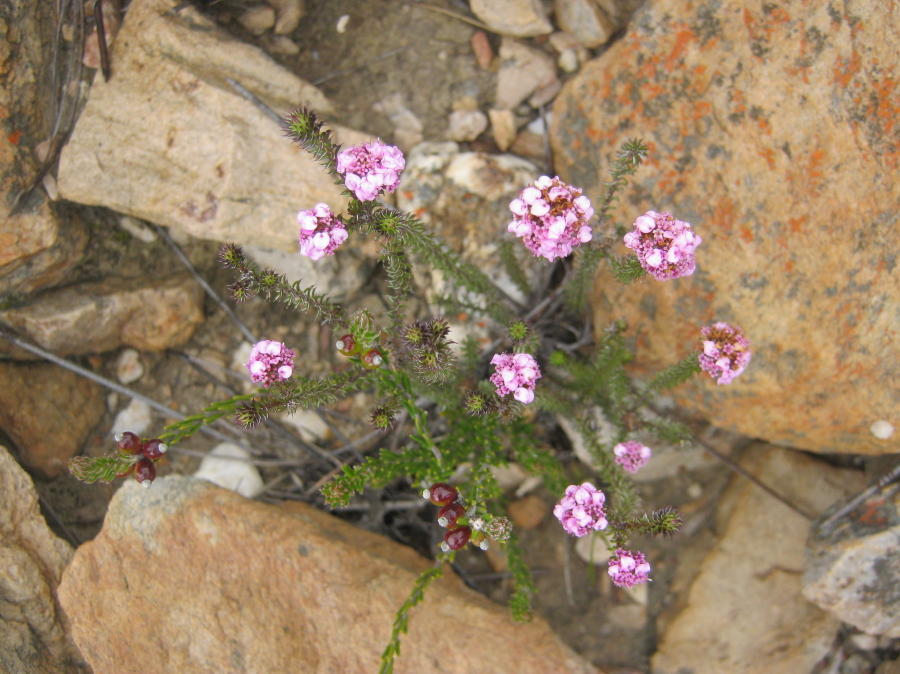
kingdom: Plantae
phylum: Tracheophyta
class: Magnoliopsida
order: Asterales
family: Asteraceae
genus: Disparago
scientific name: Disparago tortilis
